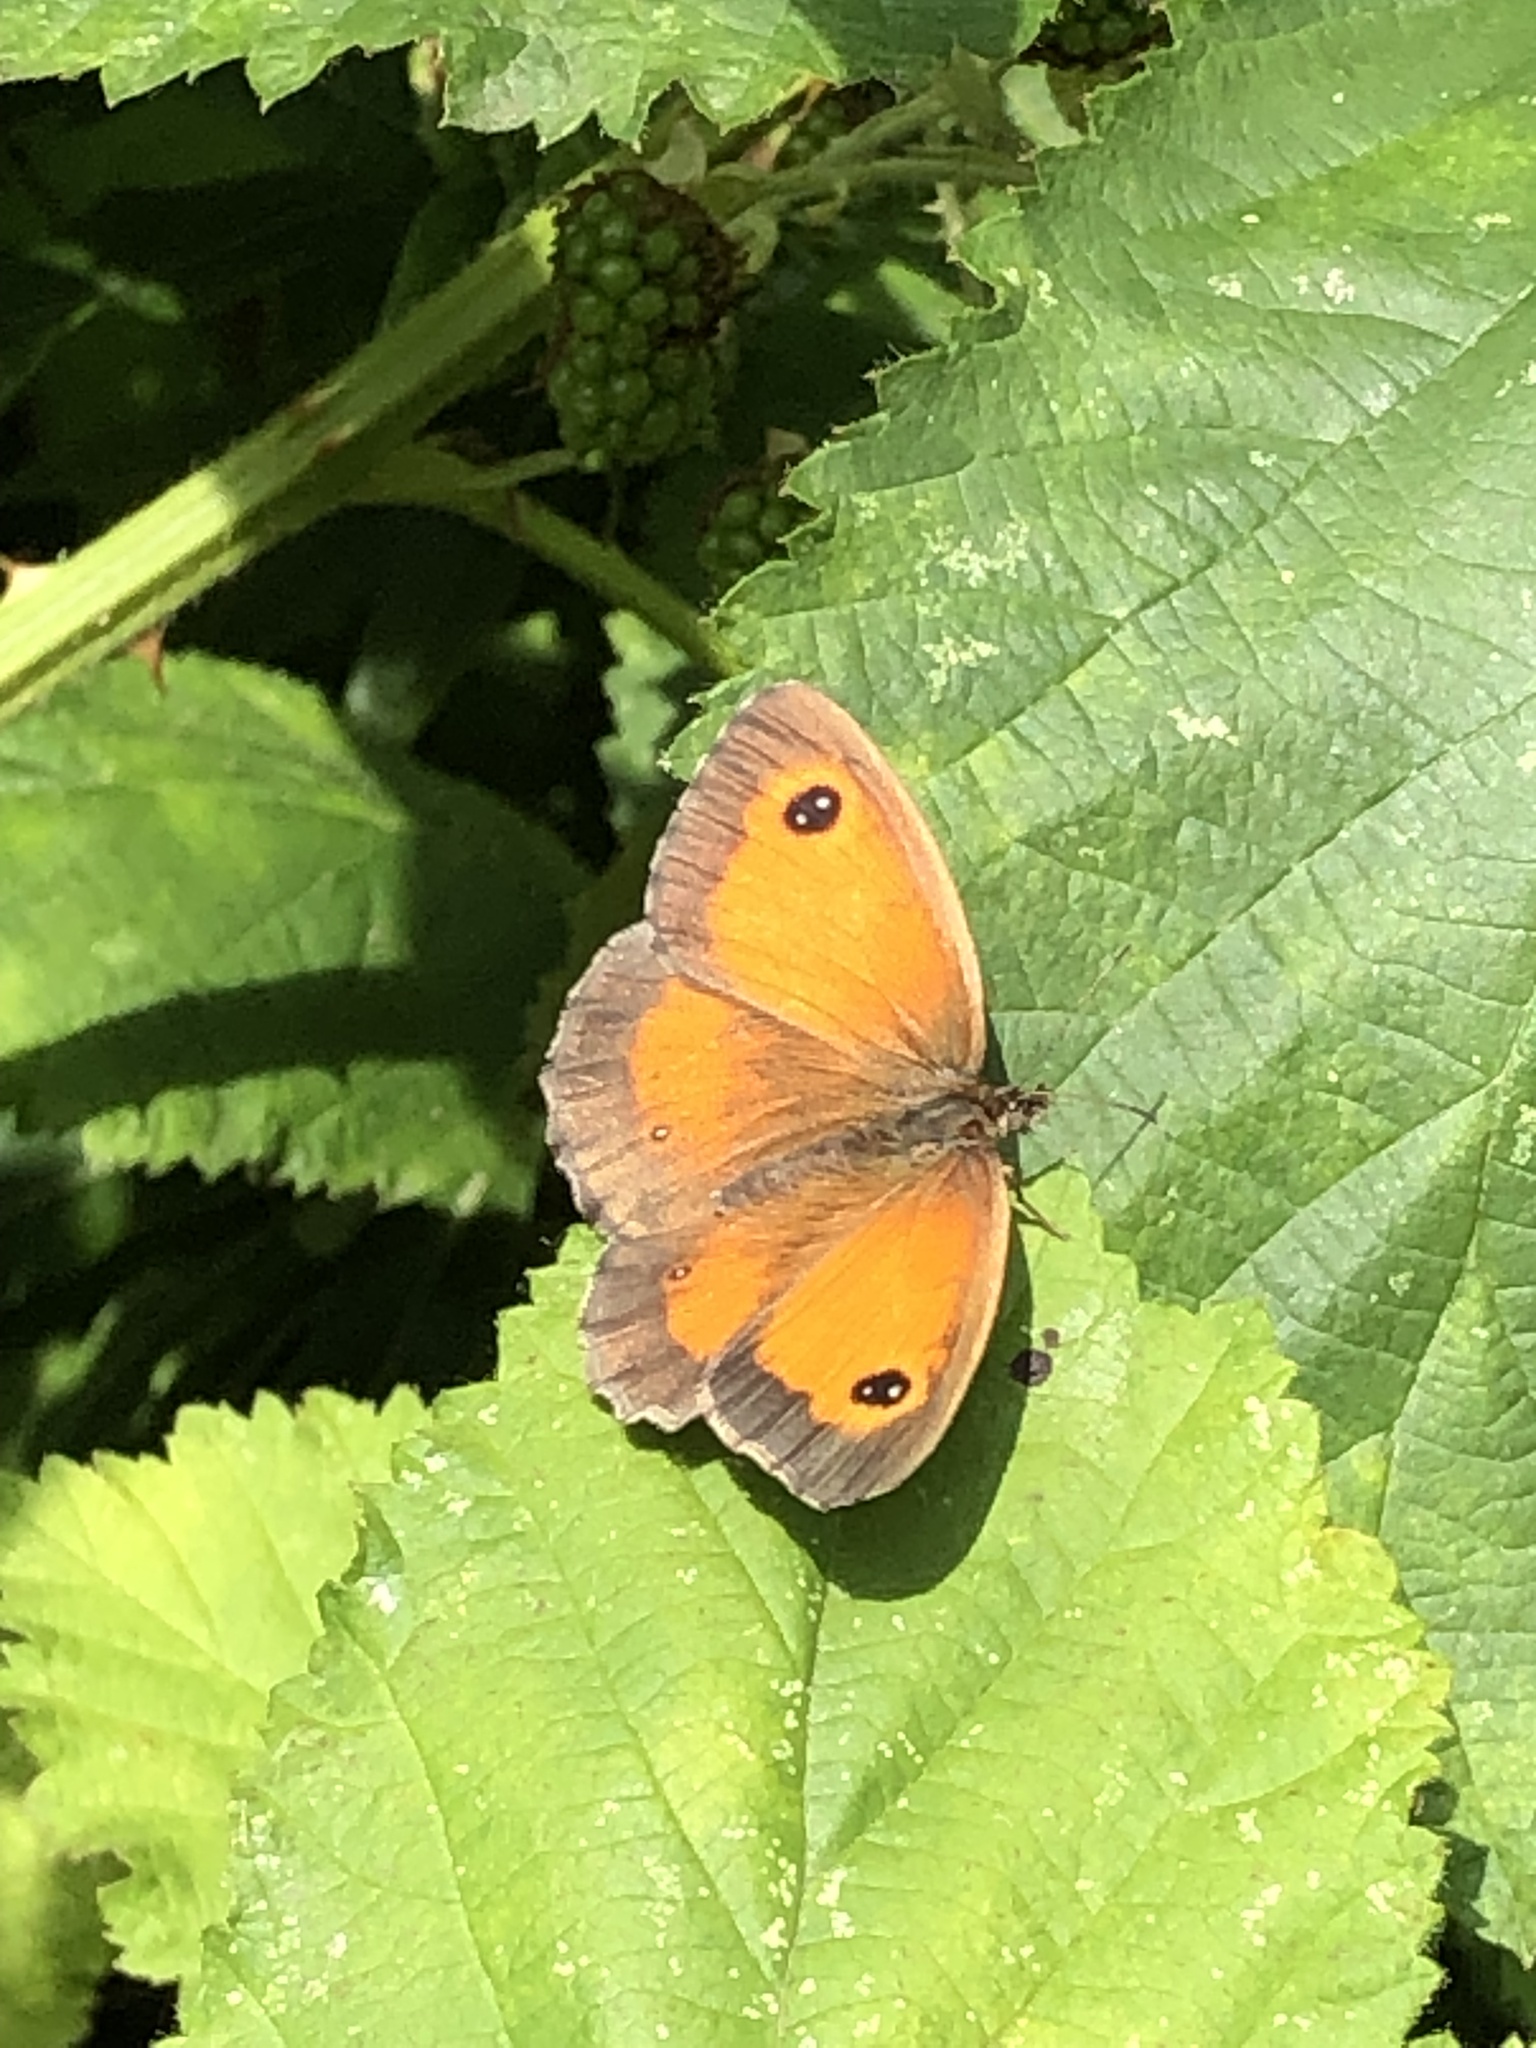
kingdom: Animalia
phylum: Arthropoda
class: Insecta
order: Lepidoptera
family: Nymphalidae
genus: Pyronia
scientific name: Pyronia tithonus
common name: Gatekeeper
